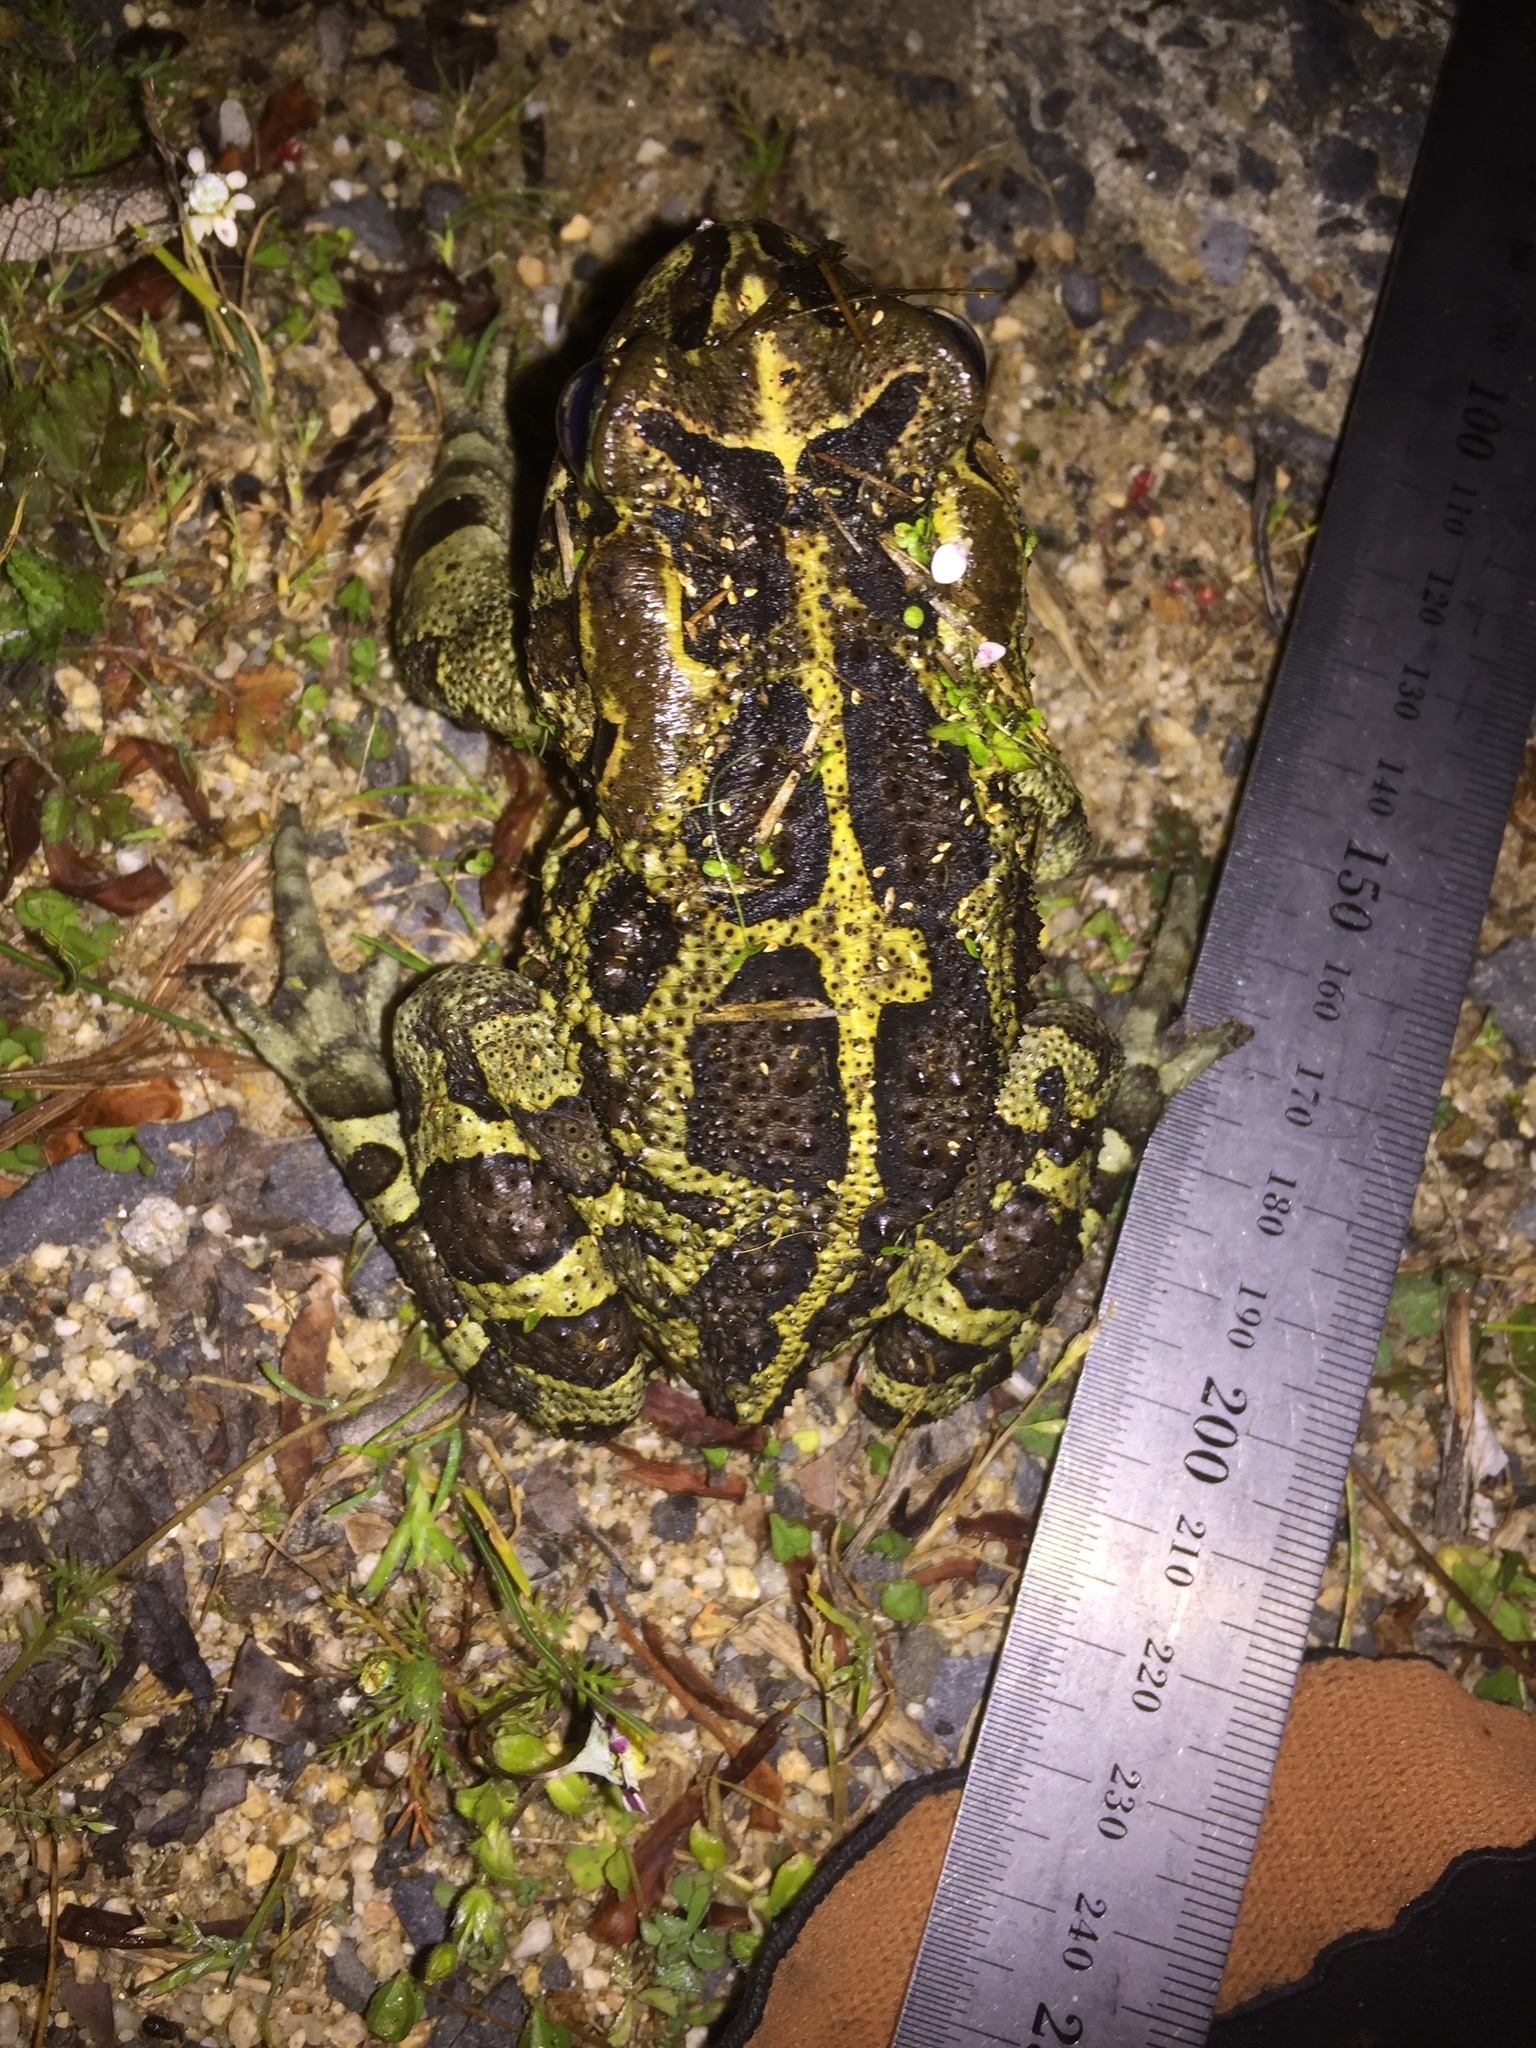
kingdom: Animalia
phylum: Chordata
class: Amphibia
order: Anura
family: Bufonidae
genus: Sclerophrys
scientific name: Sclerophrys pantherina
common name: Panther toad
